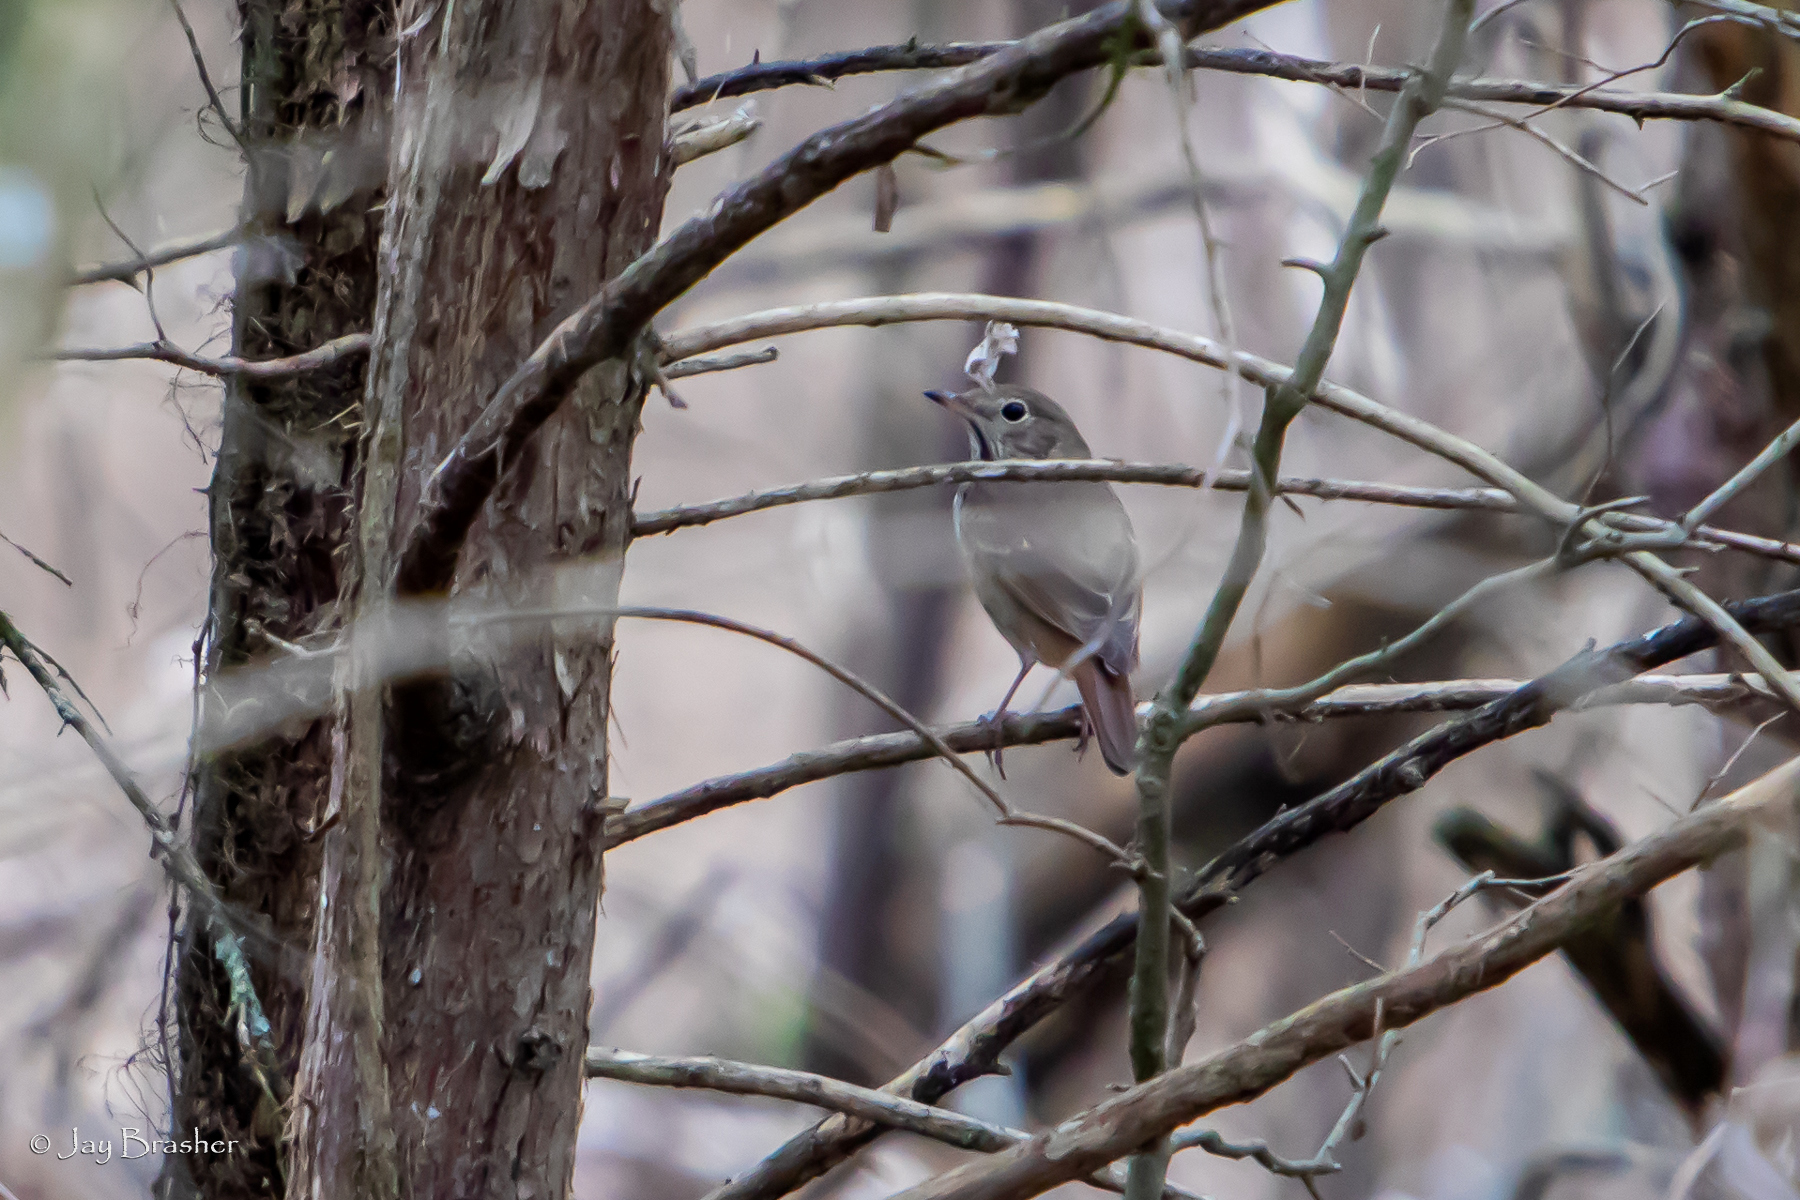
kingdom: Animalia
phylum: Chordata
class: Aves
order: Passeriformes
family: Turdidae
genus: Catharus
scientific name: Catharus guttatus
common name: Hermit thrush
